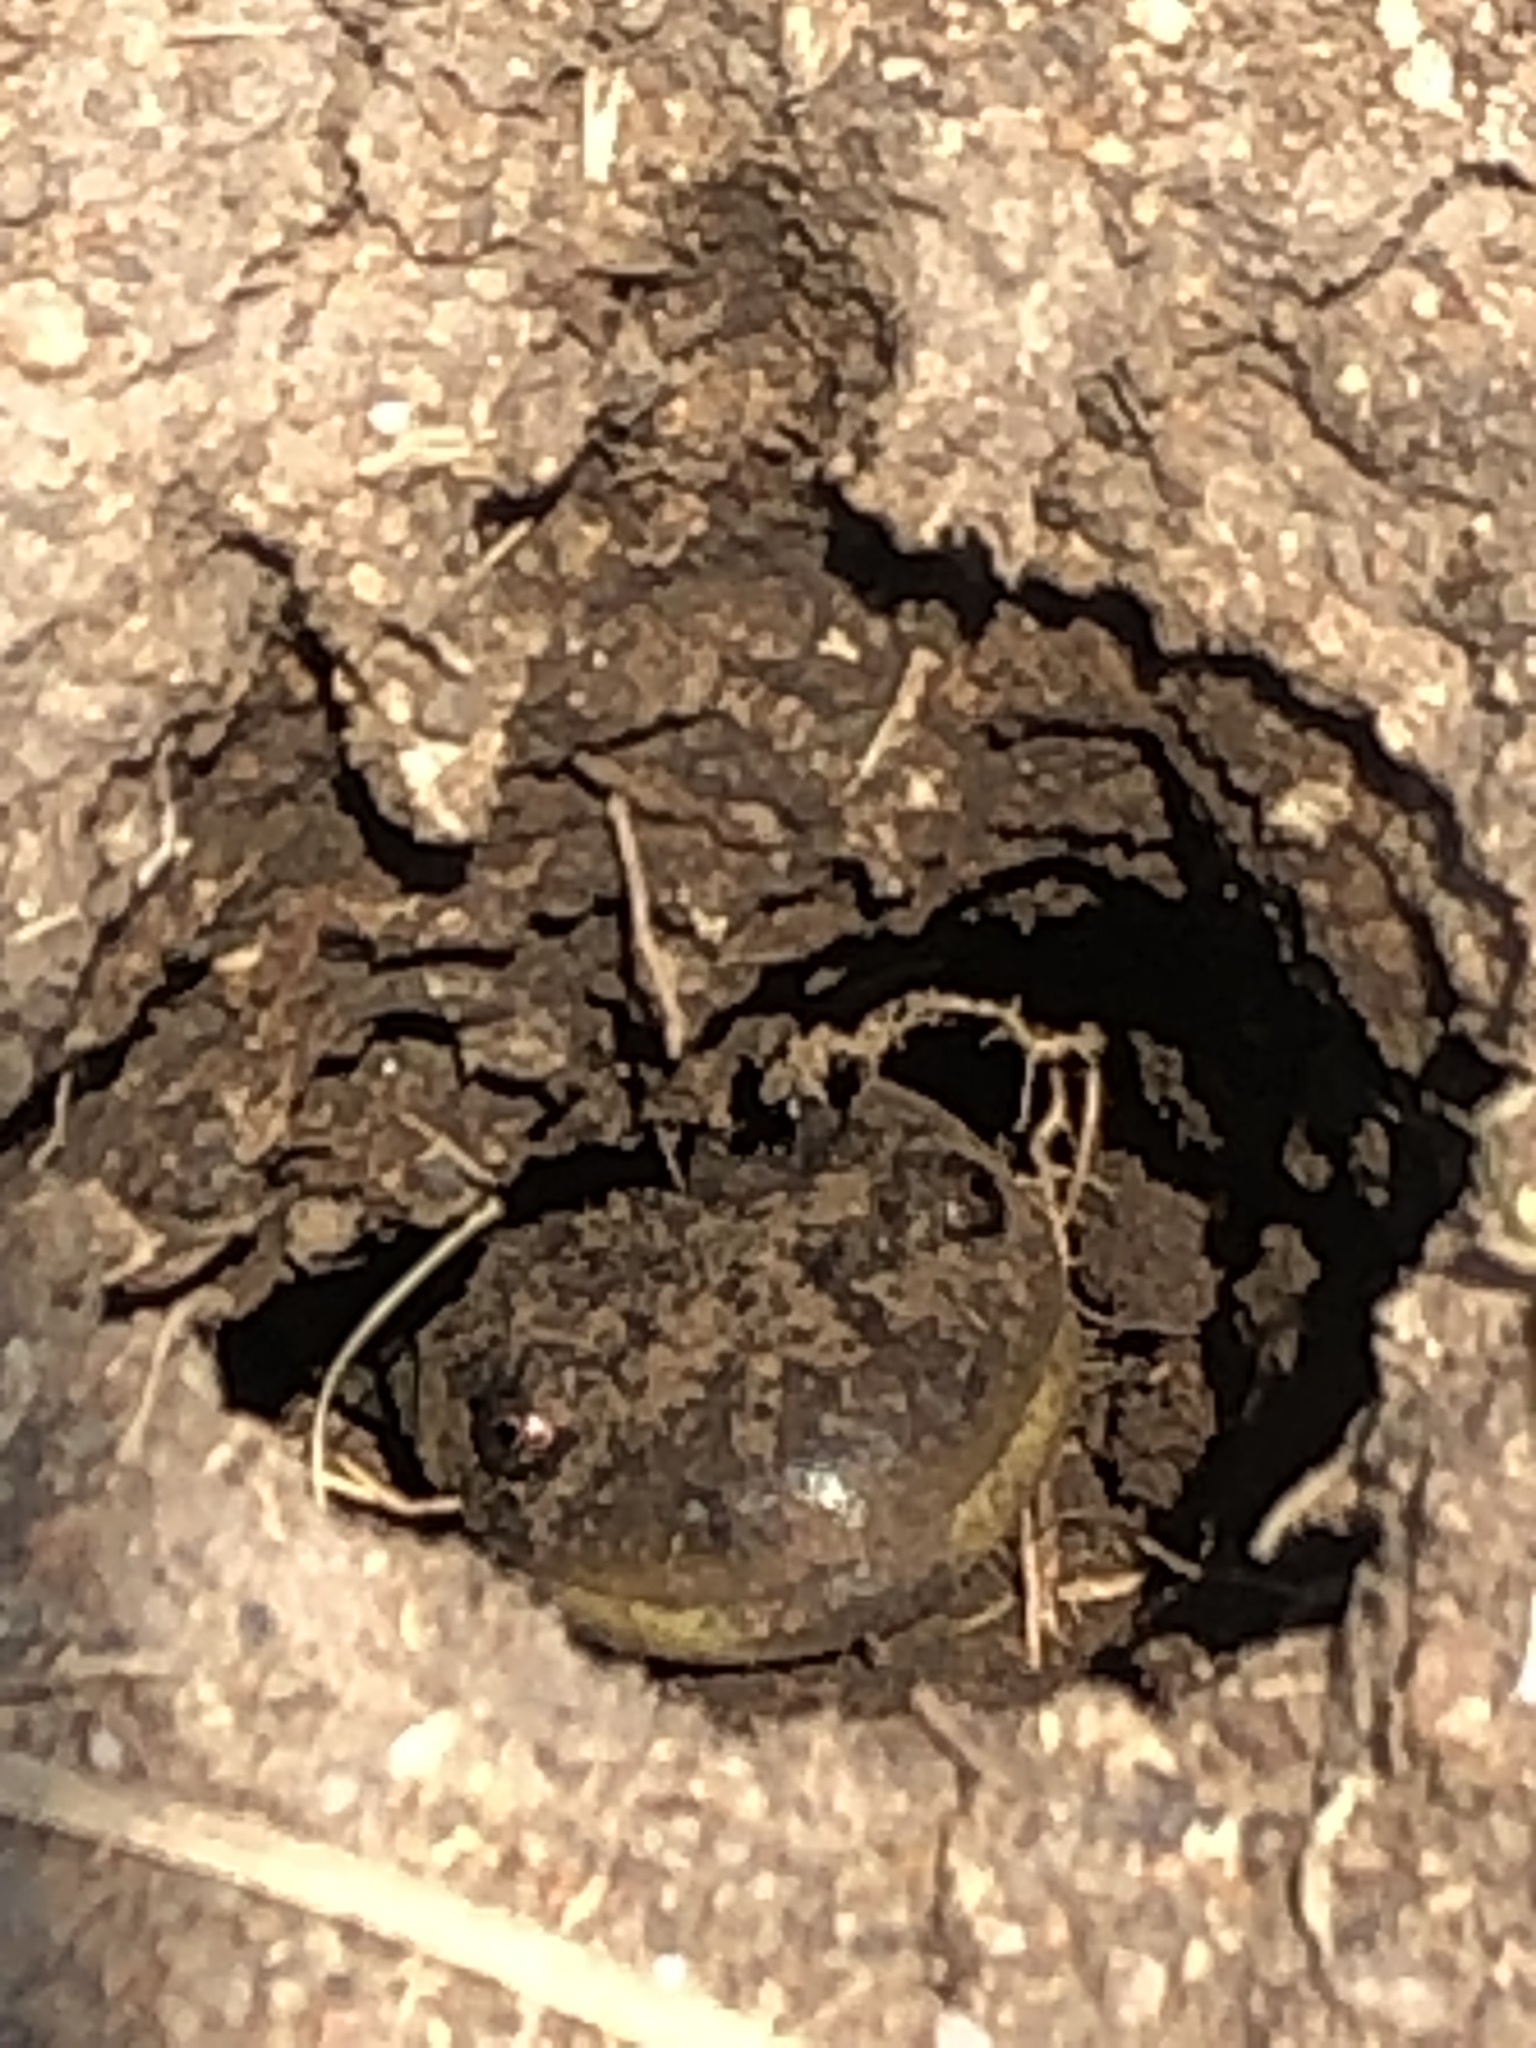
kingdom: Animalia
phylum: Chordata
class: Amphibia
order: Caudata
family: Ambystomatidae
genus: Ambystoma
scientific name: Ambystoma mavortium
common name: Western tiger salamander
